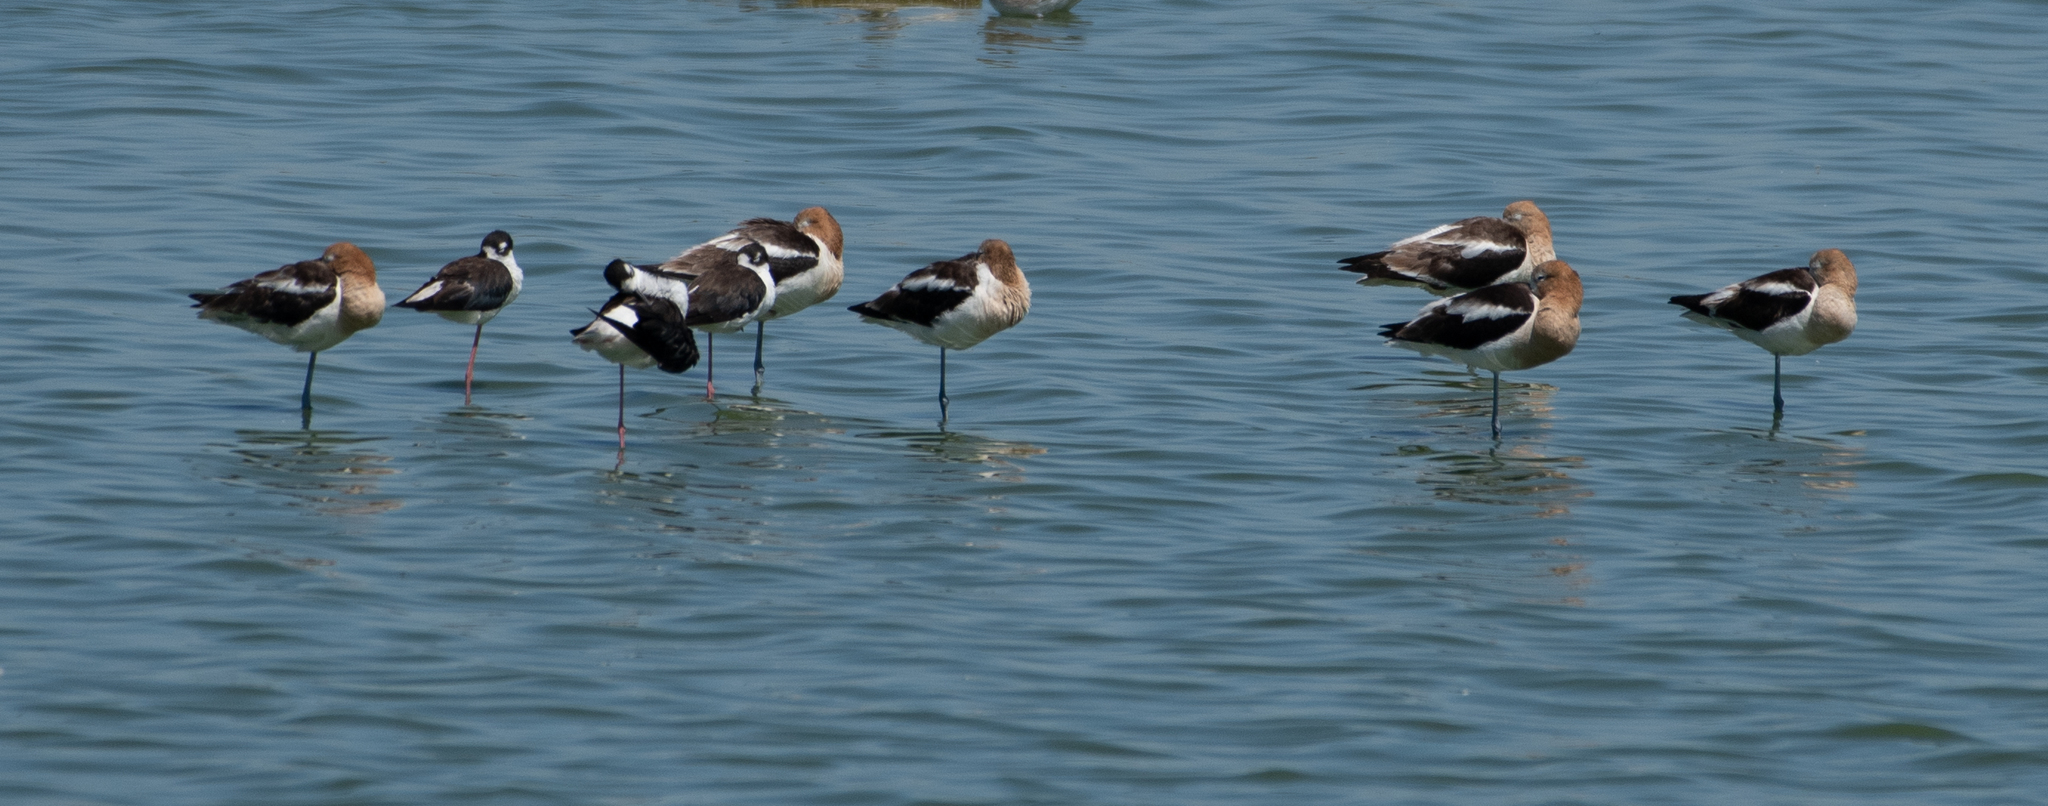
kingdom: Animalia
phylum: Chordata
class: Aves
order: Charadriiformes
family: Recurvirostridae
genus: Recurvirostra
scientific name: Recurvirostra americana
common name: American avocet
